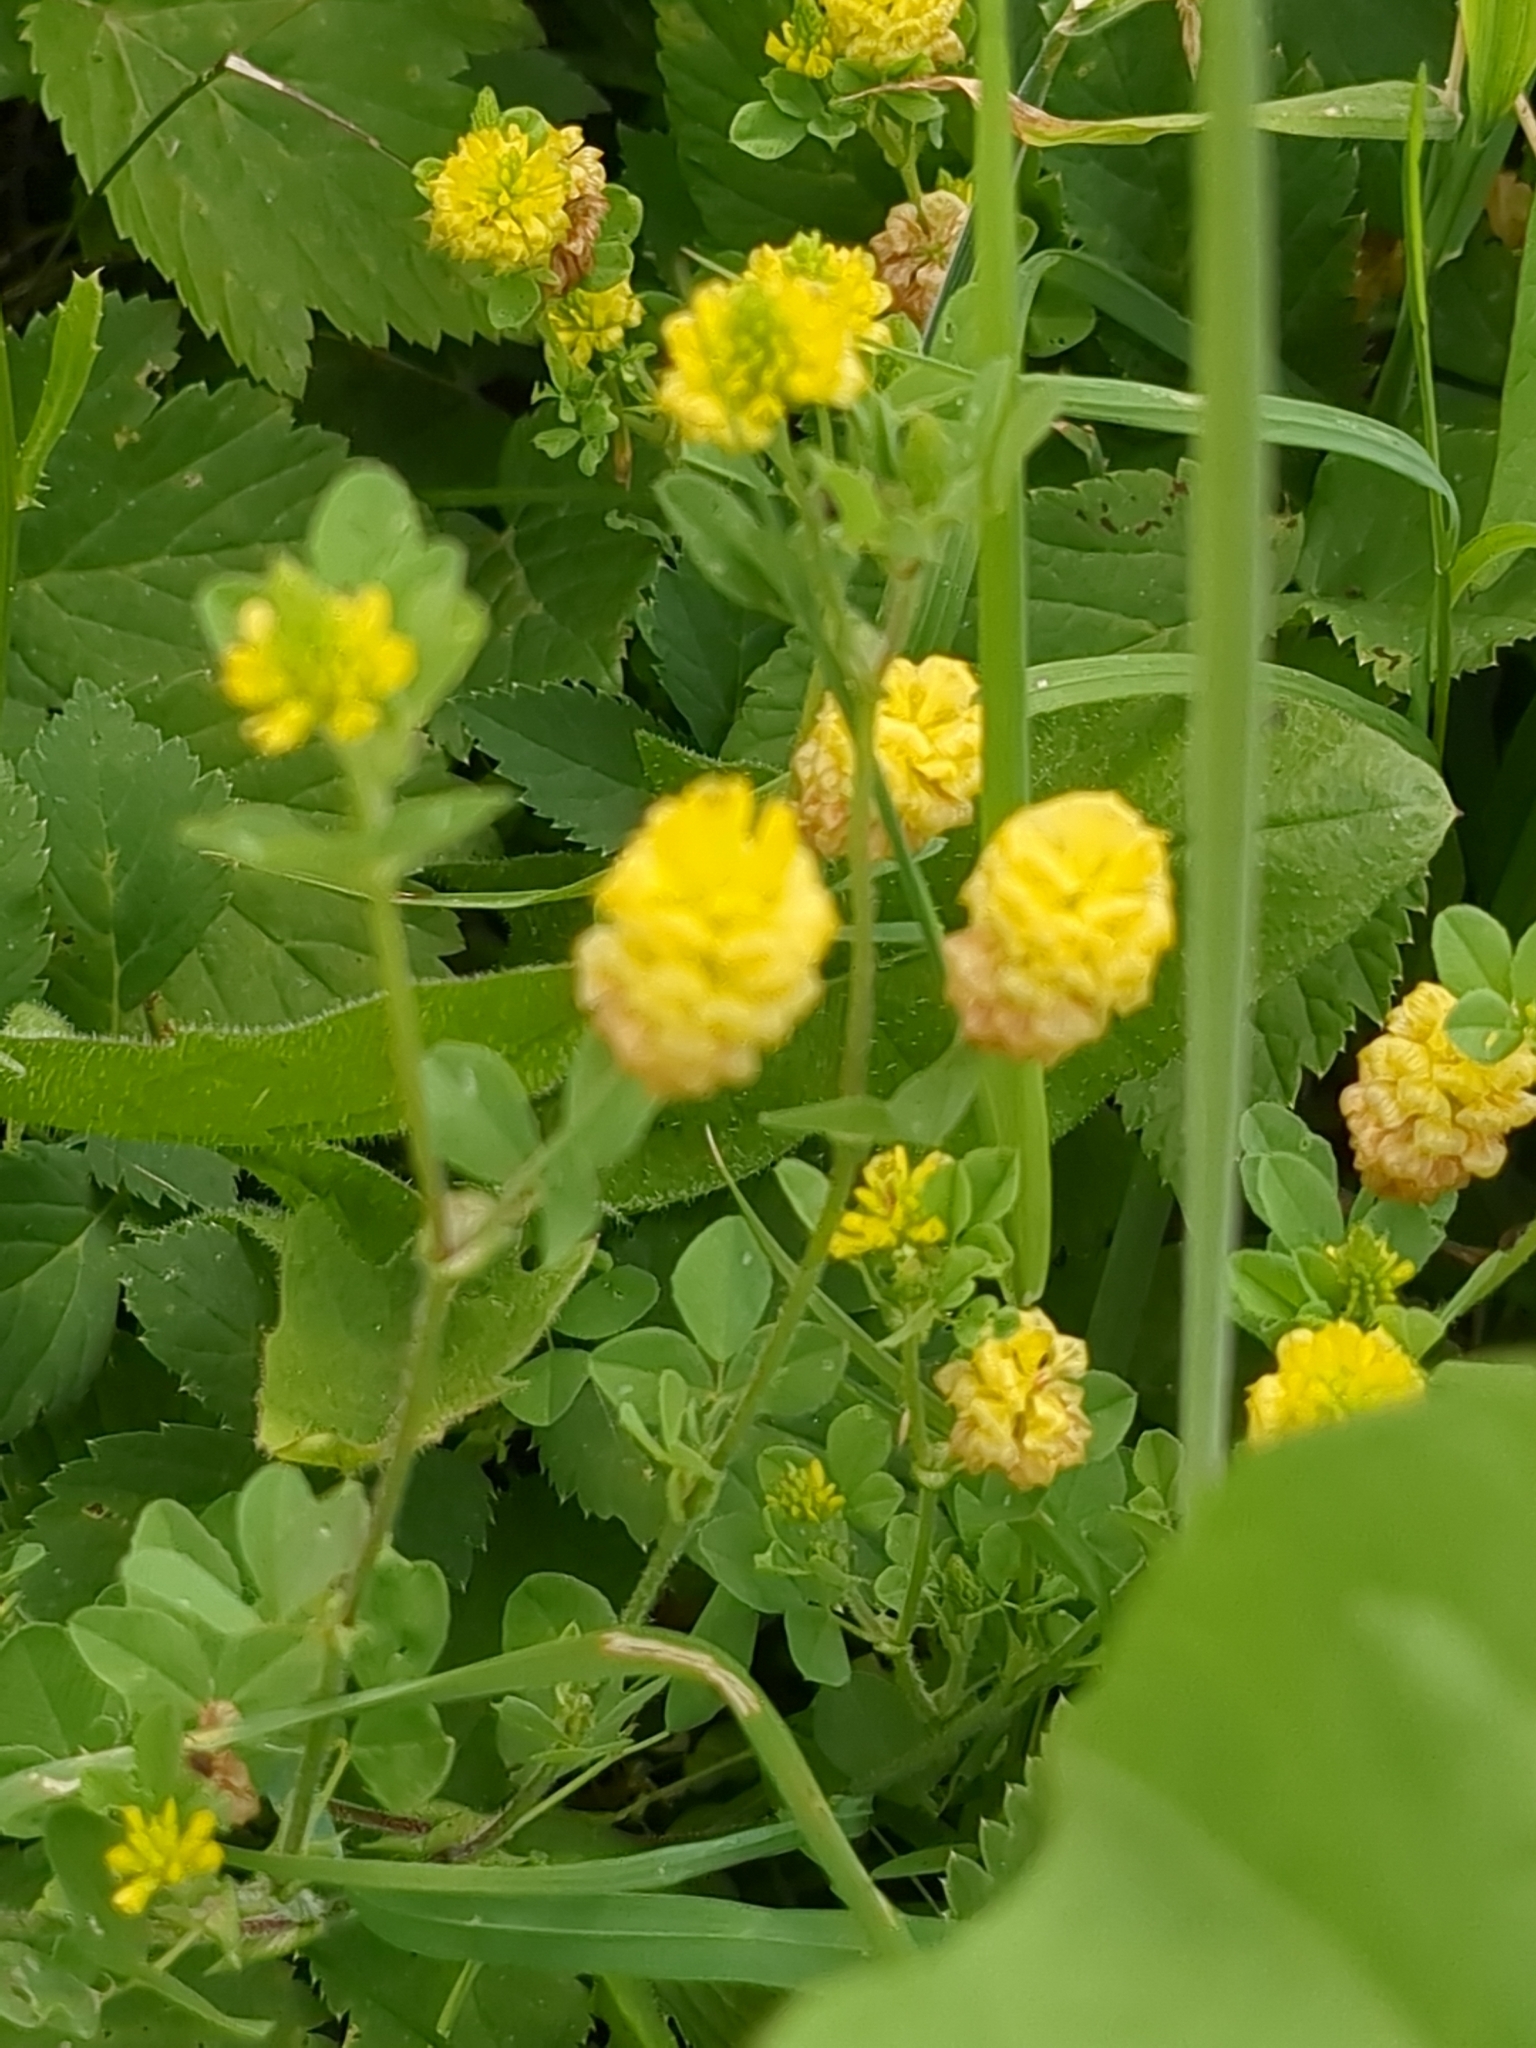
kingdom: Plantae
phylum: Tracheophyta
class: Magnoliopsida
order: Fabales
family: Fabaceae
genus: Trifolium
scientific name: Trifolium campestre
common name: Field clover
